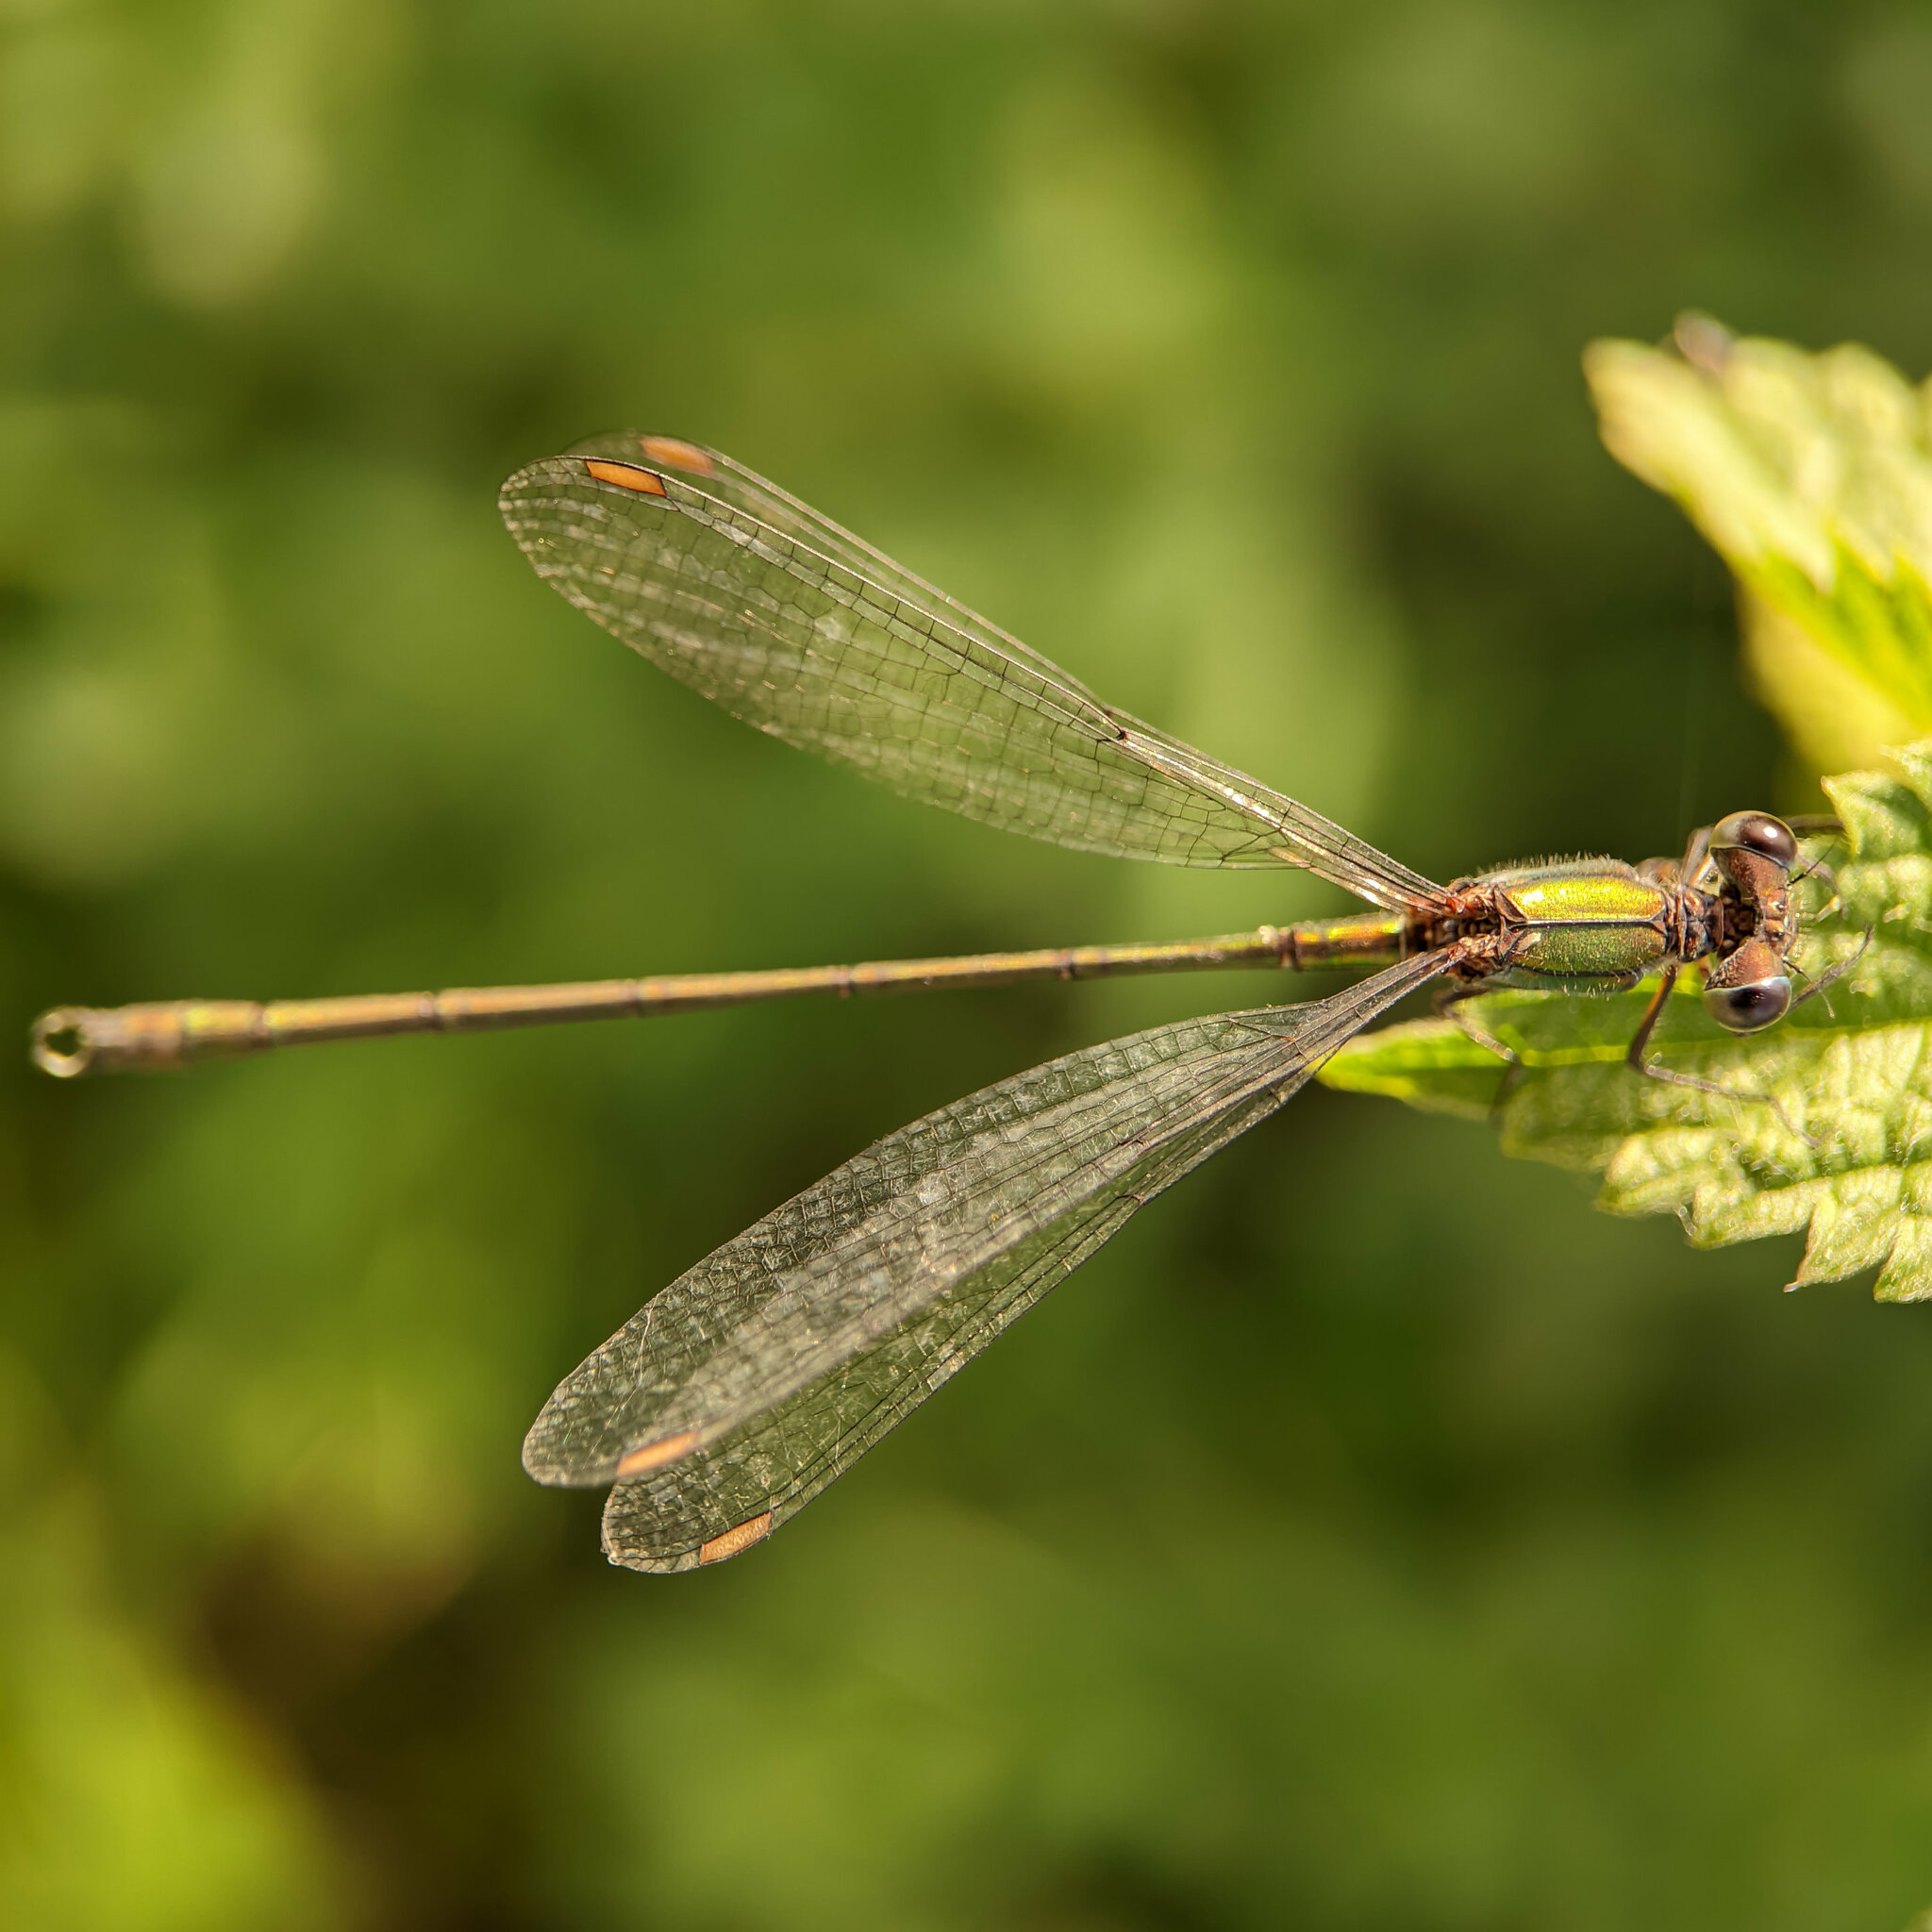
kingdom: Animalia
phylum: Arthropoda
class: Insecta
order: Odonata
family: Lestidae
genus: Chalcolestes
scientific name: Chalcolestes viridis
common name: Green emerald damselfly
